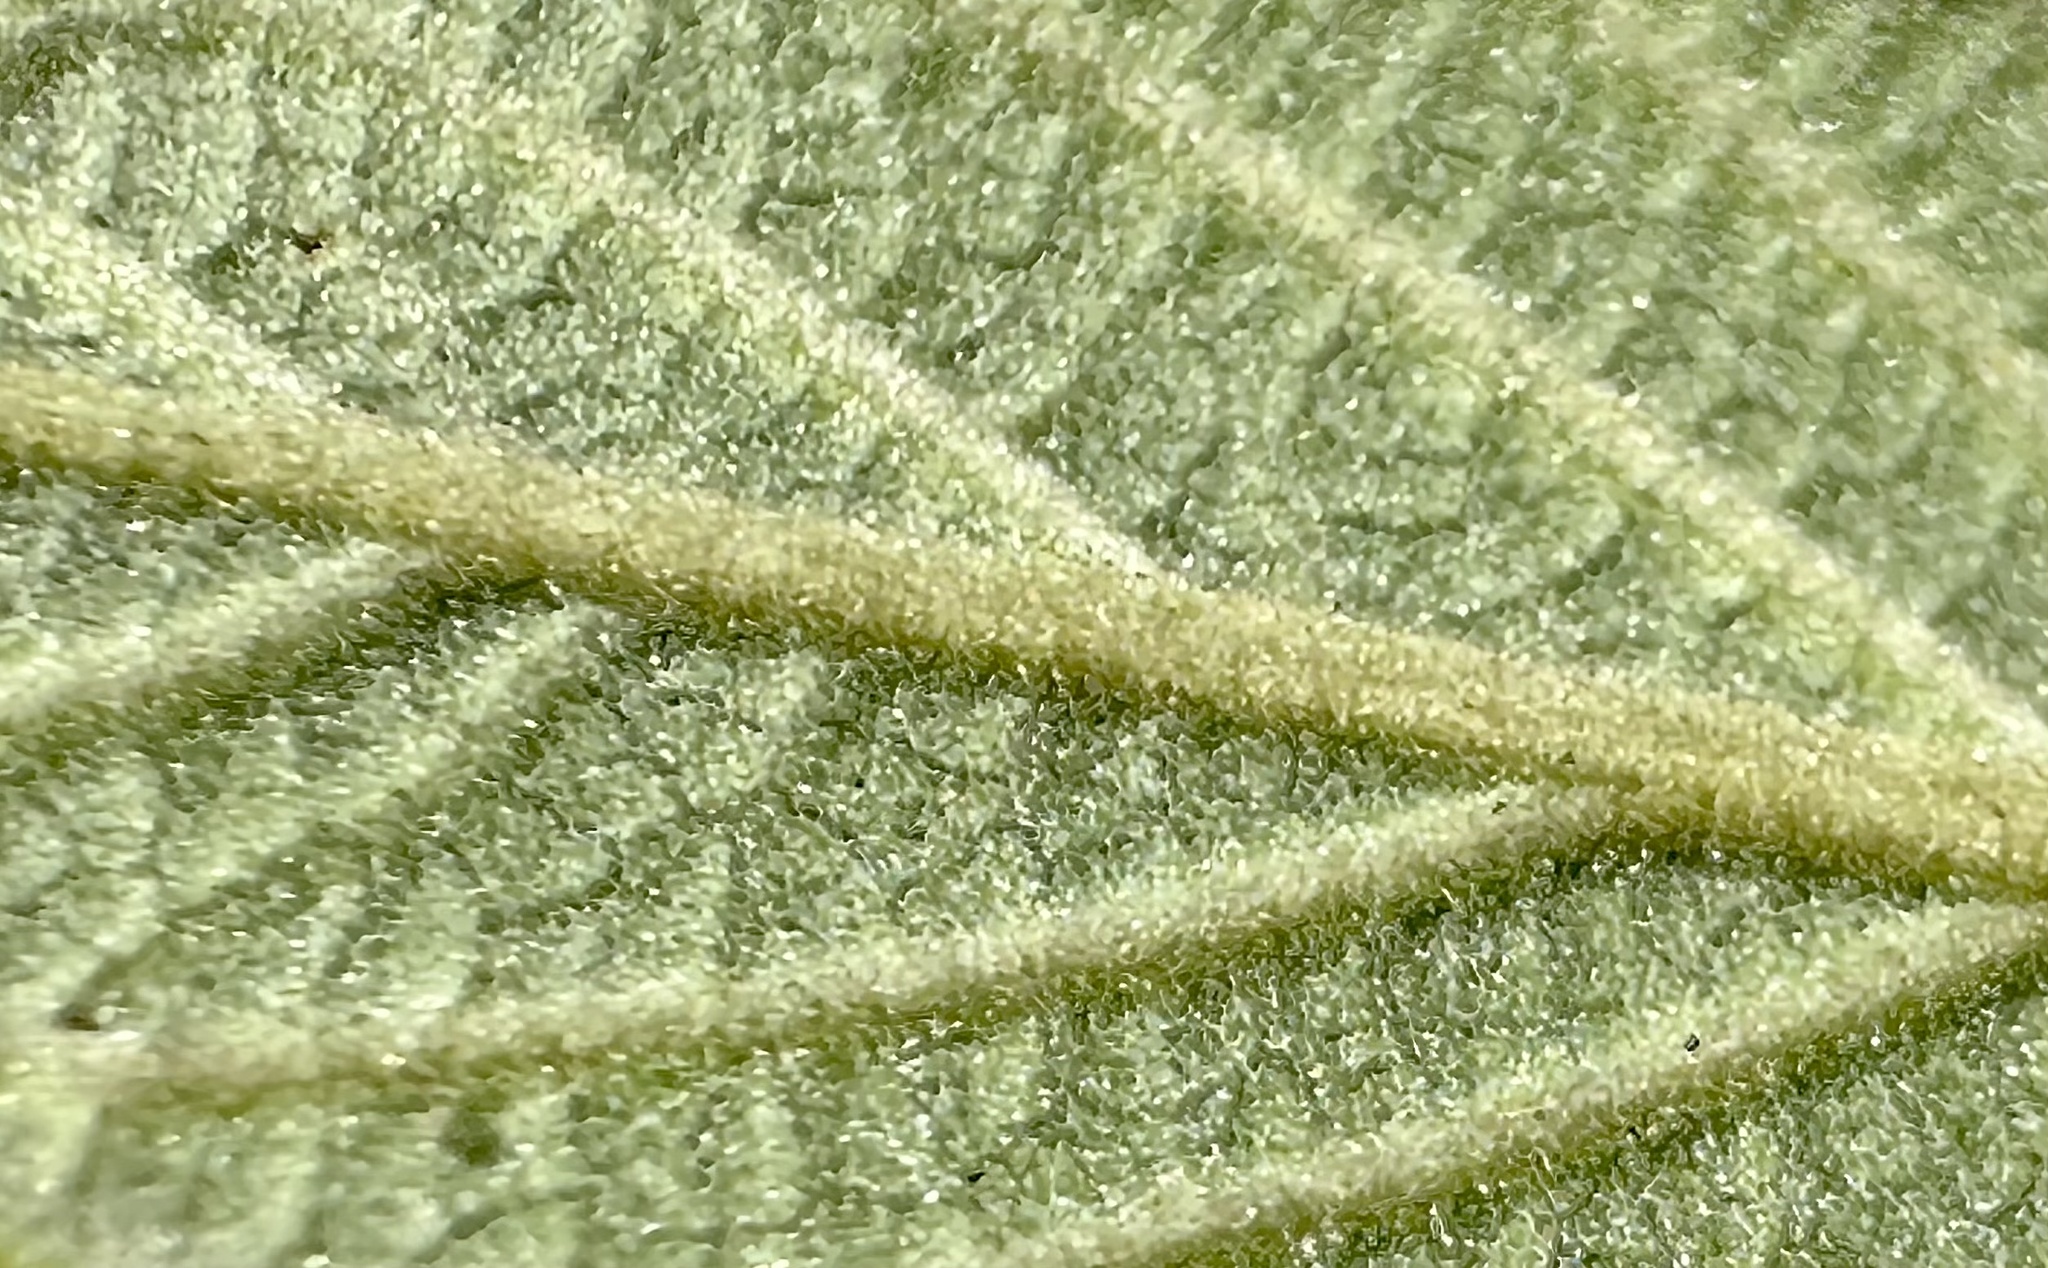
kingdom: Plantae
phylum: Tracheophyta
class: Magnoliopsida
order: Rosales
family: Rhamnaceae
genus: Frangula
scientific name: Frangula californica
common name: California buckthorn
